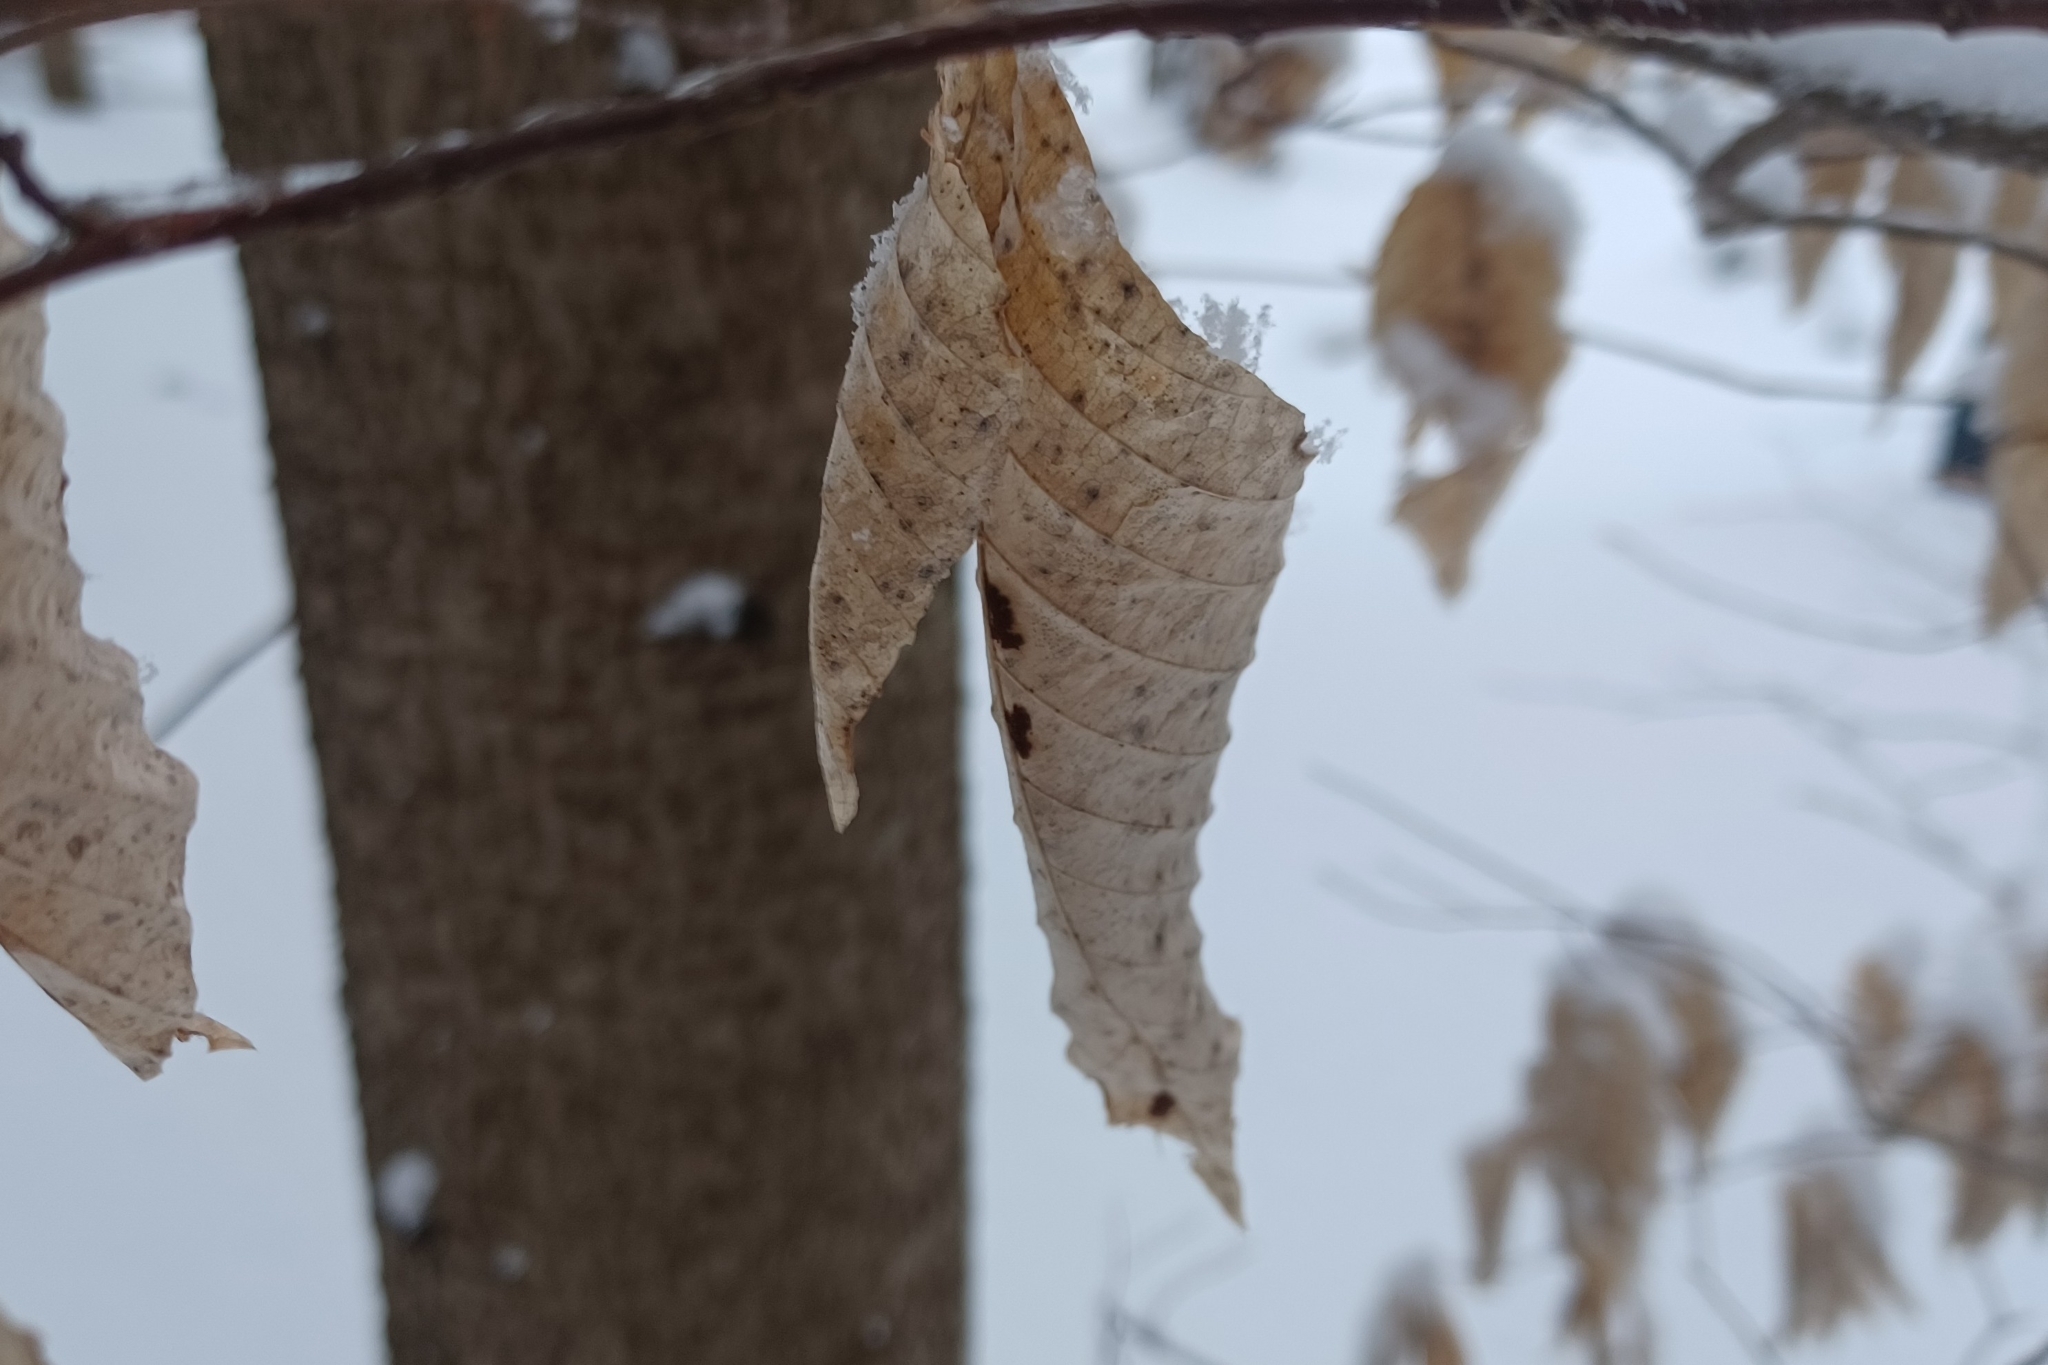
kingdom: Animalia
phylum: Arthropoda
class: Arachnida
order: Trombidiformes
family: Eriophyidae
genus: Acalitus
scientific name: Acalitus
